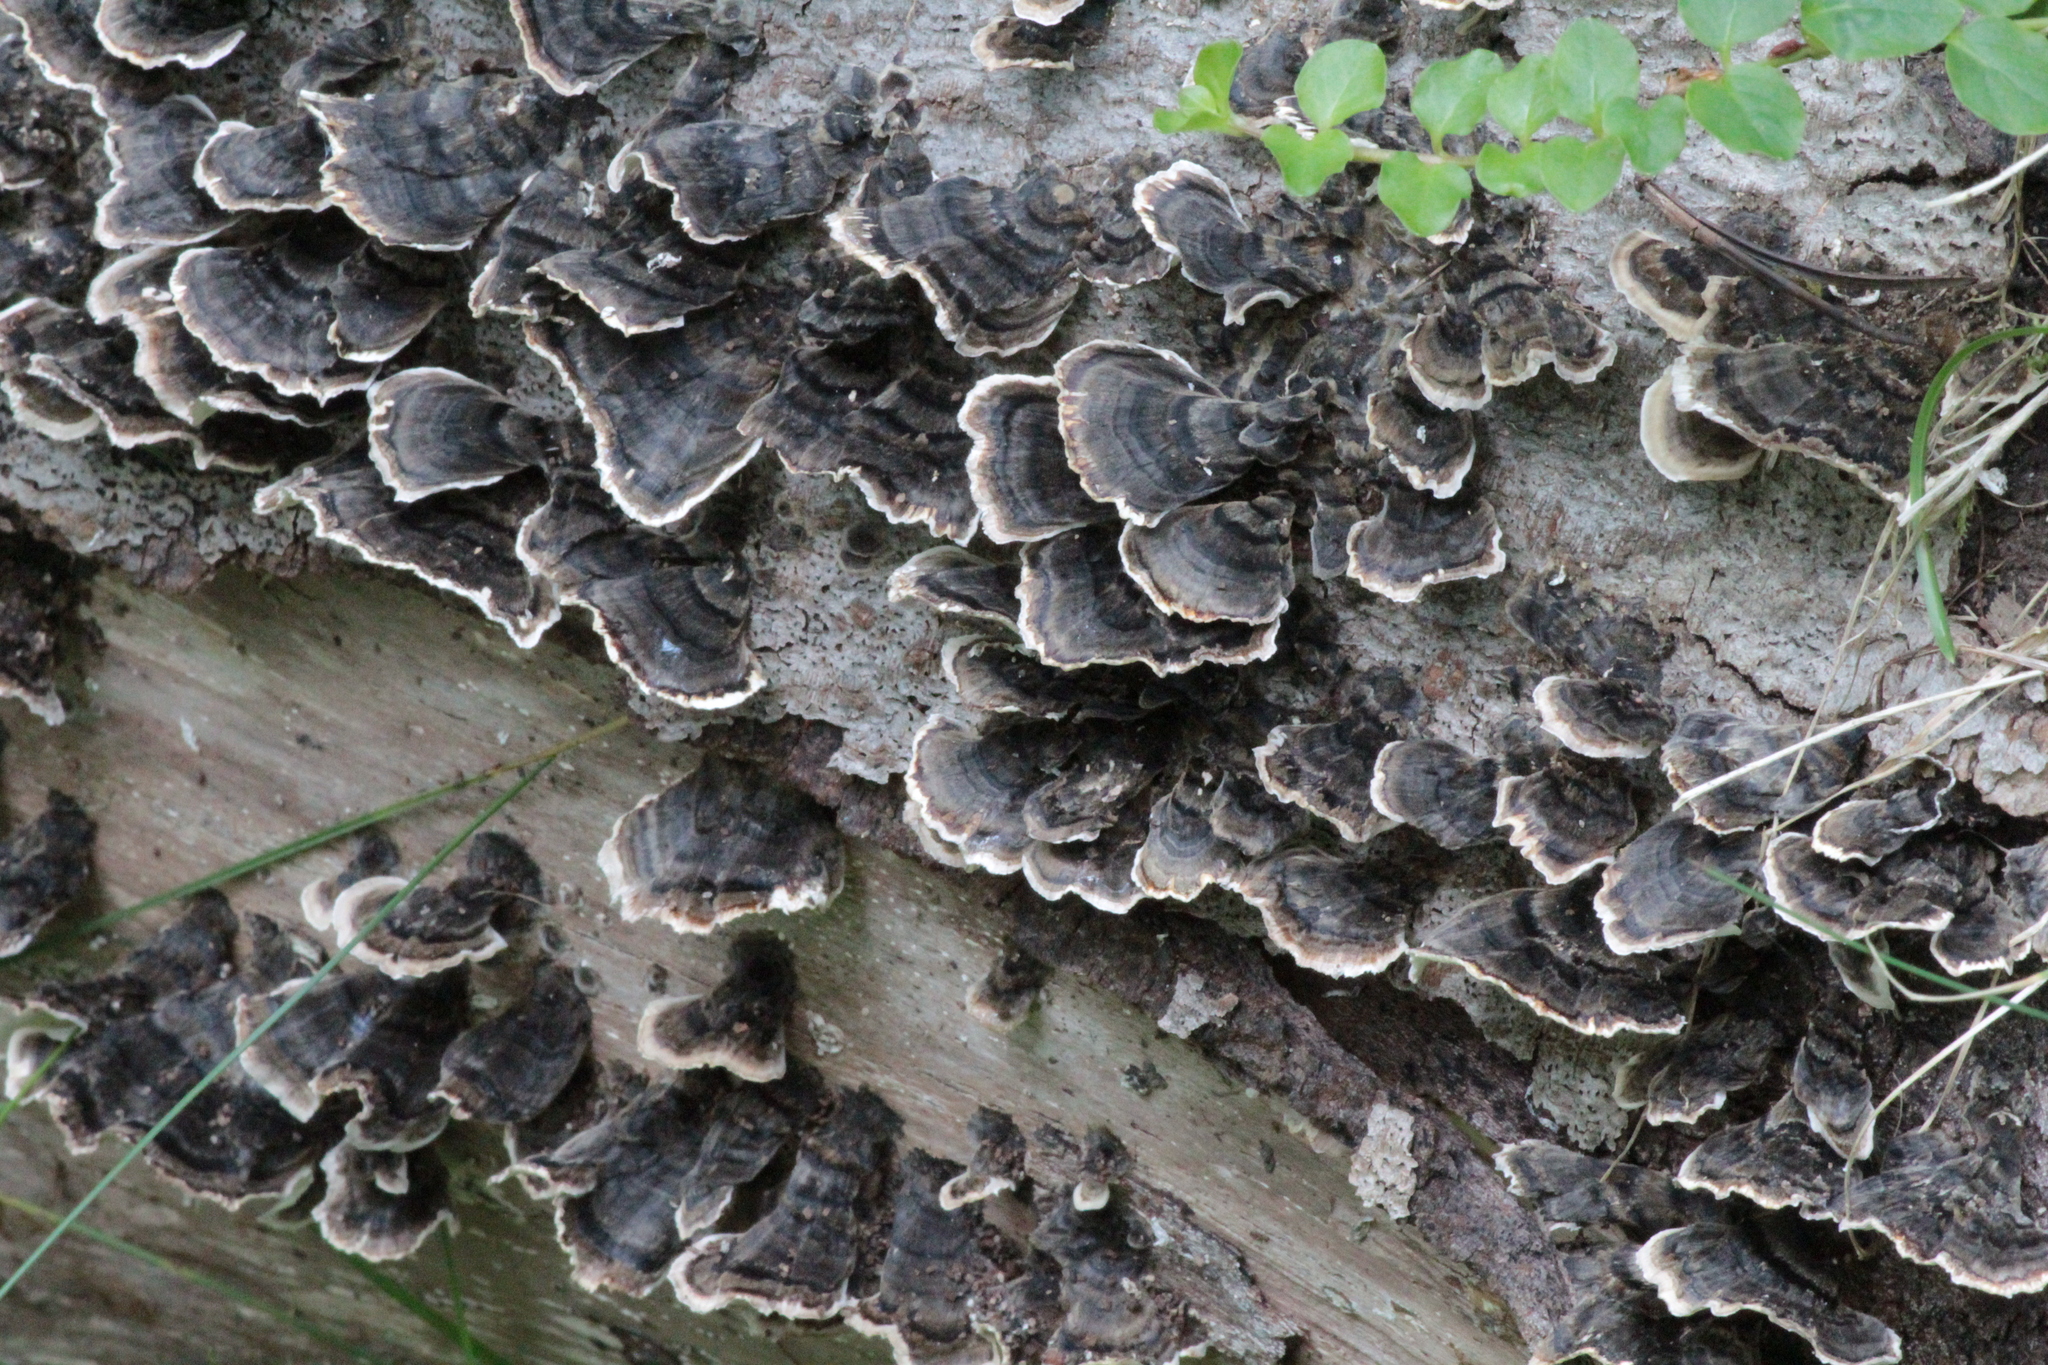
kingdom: Fungi
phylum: Basidiomycota
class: Agaricomycetes
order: Polyporales
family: Polyporaceae
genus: Trametes
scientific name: Trametes versicolor
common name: Turkeytail
